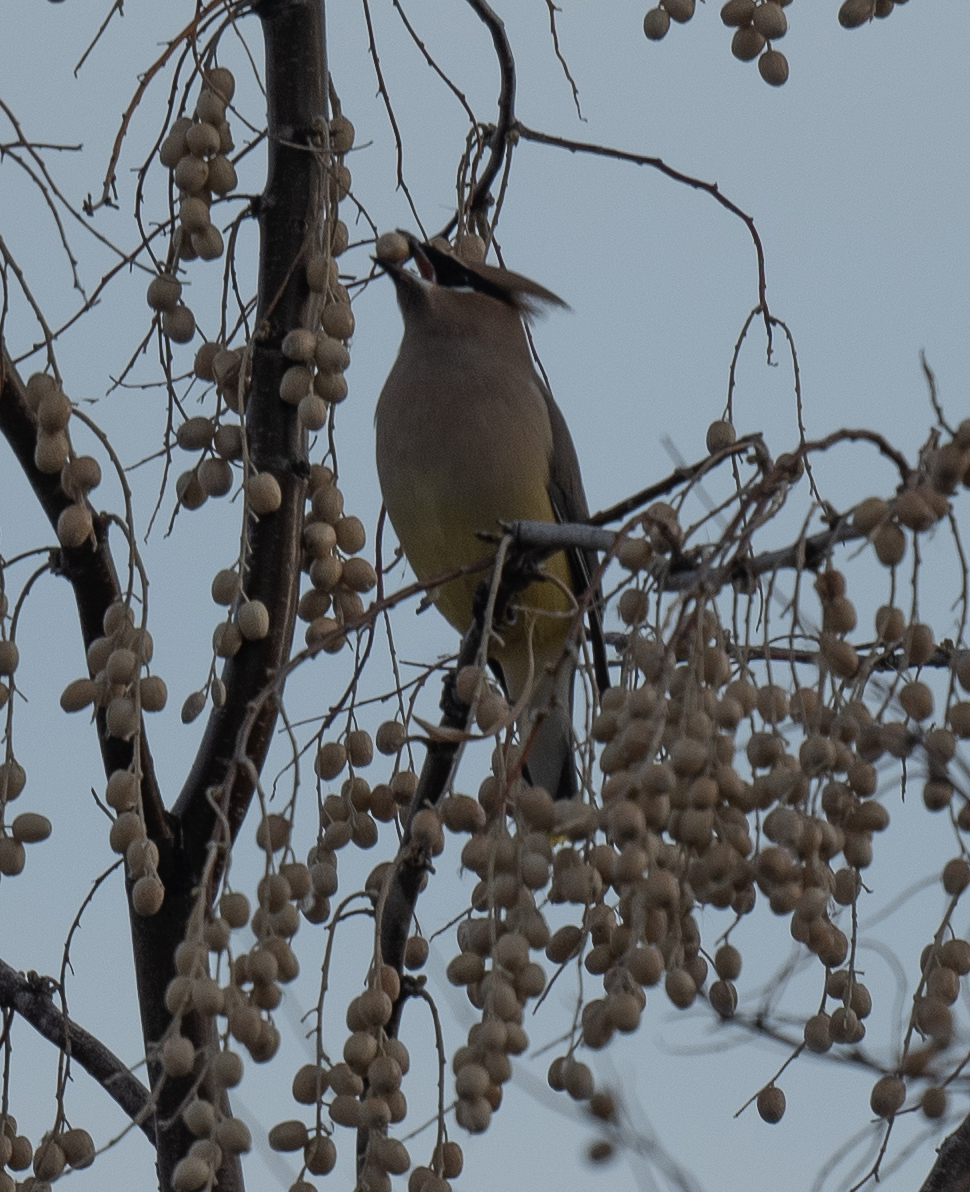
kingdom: Animalia
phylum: Chordata
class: Aves
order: Passeriformes
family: Bombycillidae
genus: Bombycilla
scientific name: Bombycilla cedrorum
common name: Cedar waxwing
